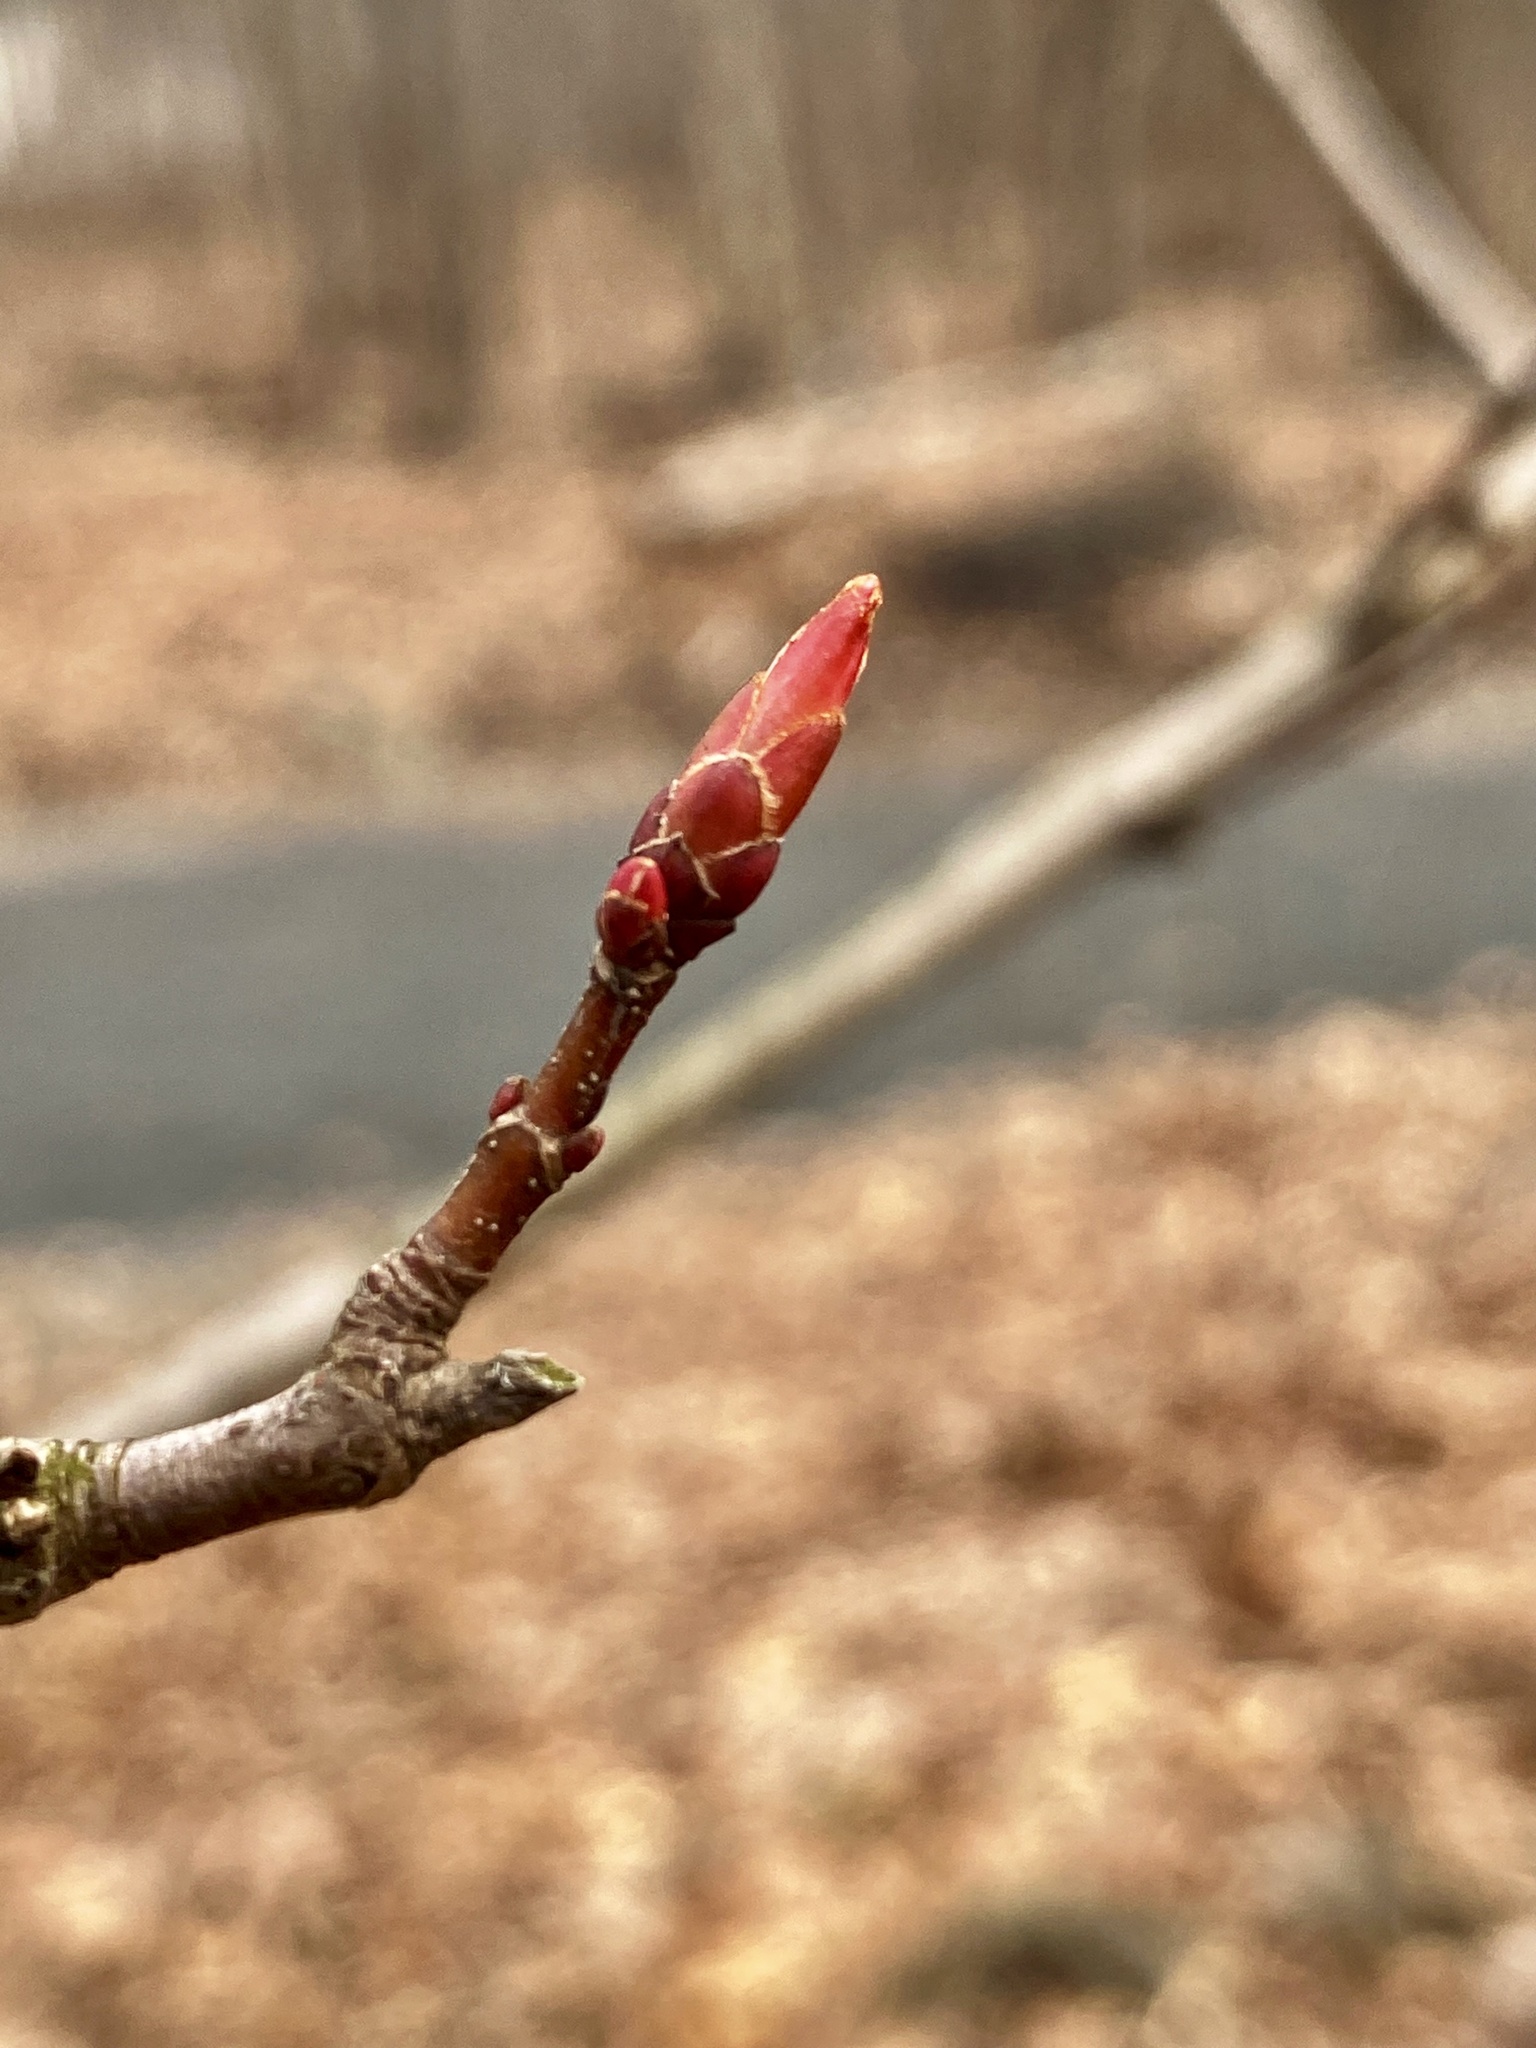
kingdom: Plantae
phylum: Tracheophyta
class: Magnoliopsida
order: Sapindales
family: Sapindaceae
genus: Acer
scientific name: Acer rubrum
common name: Red maple
